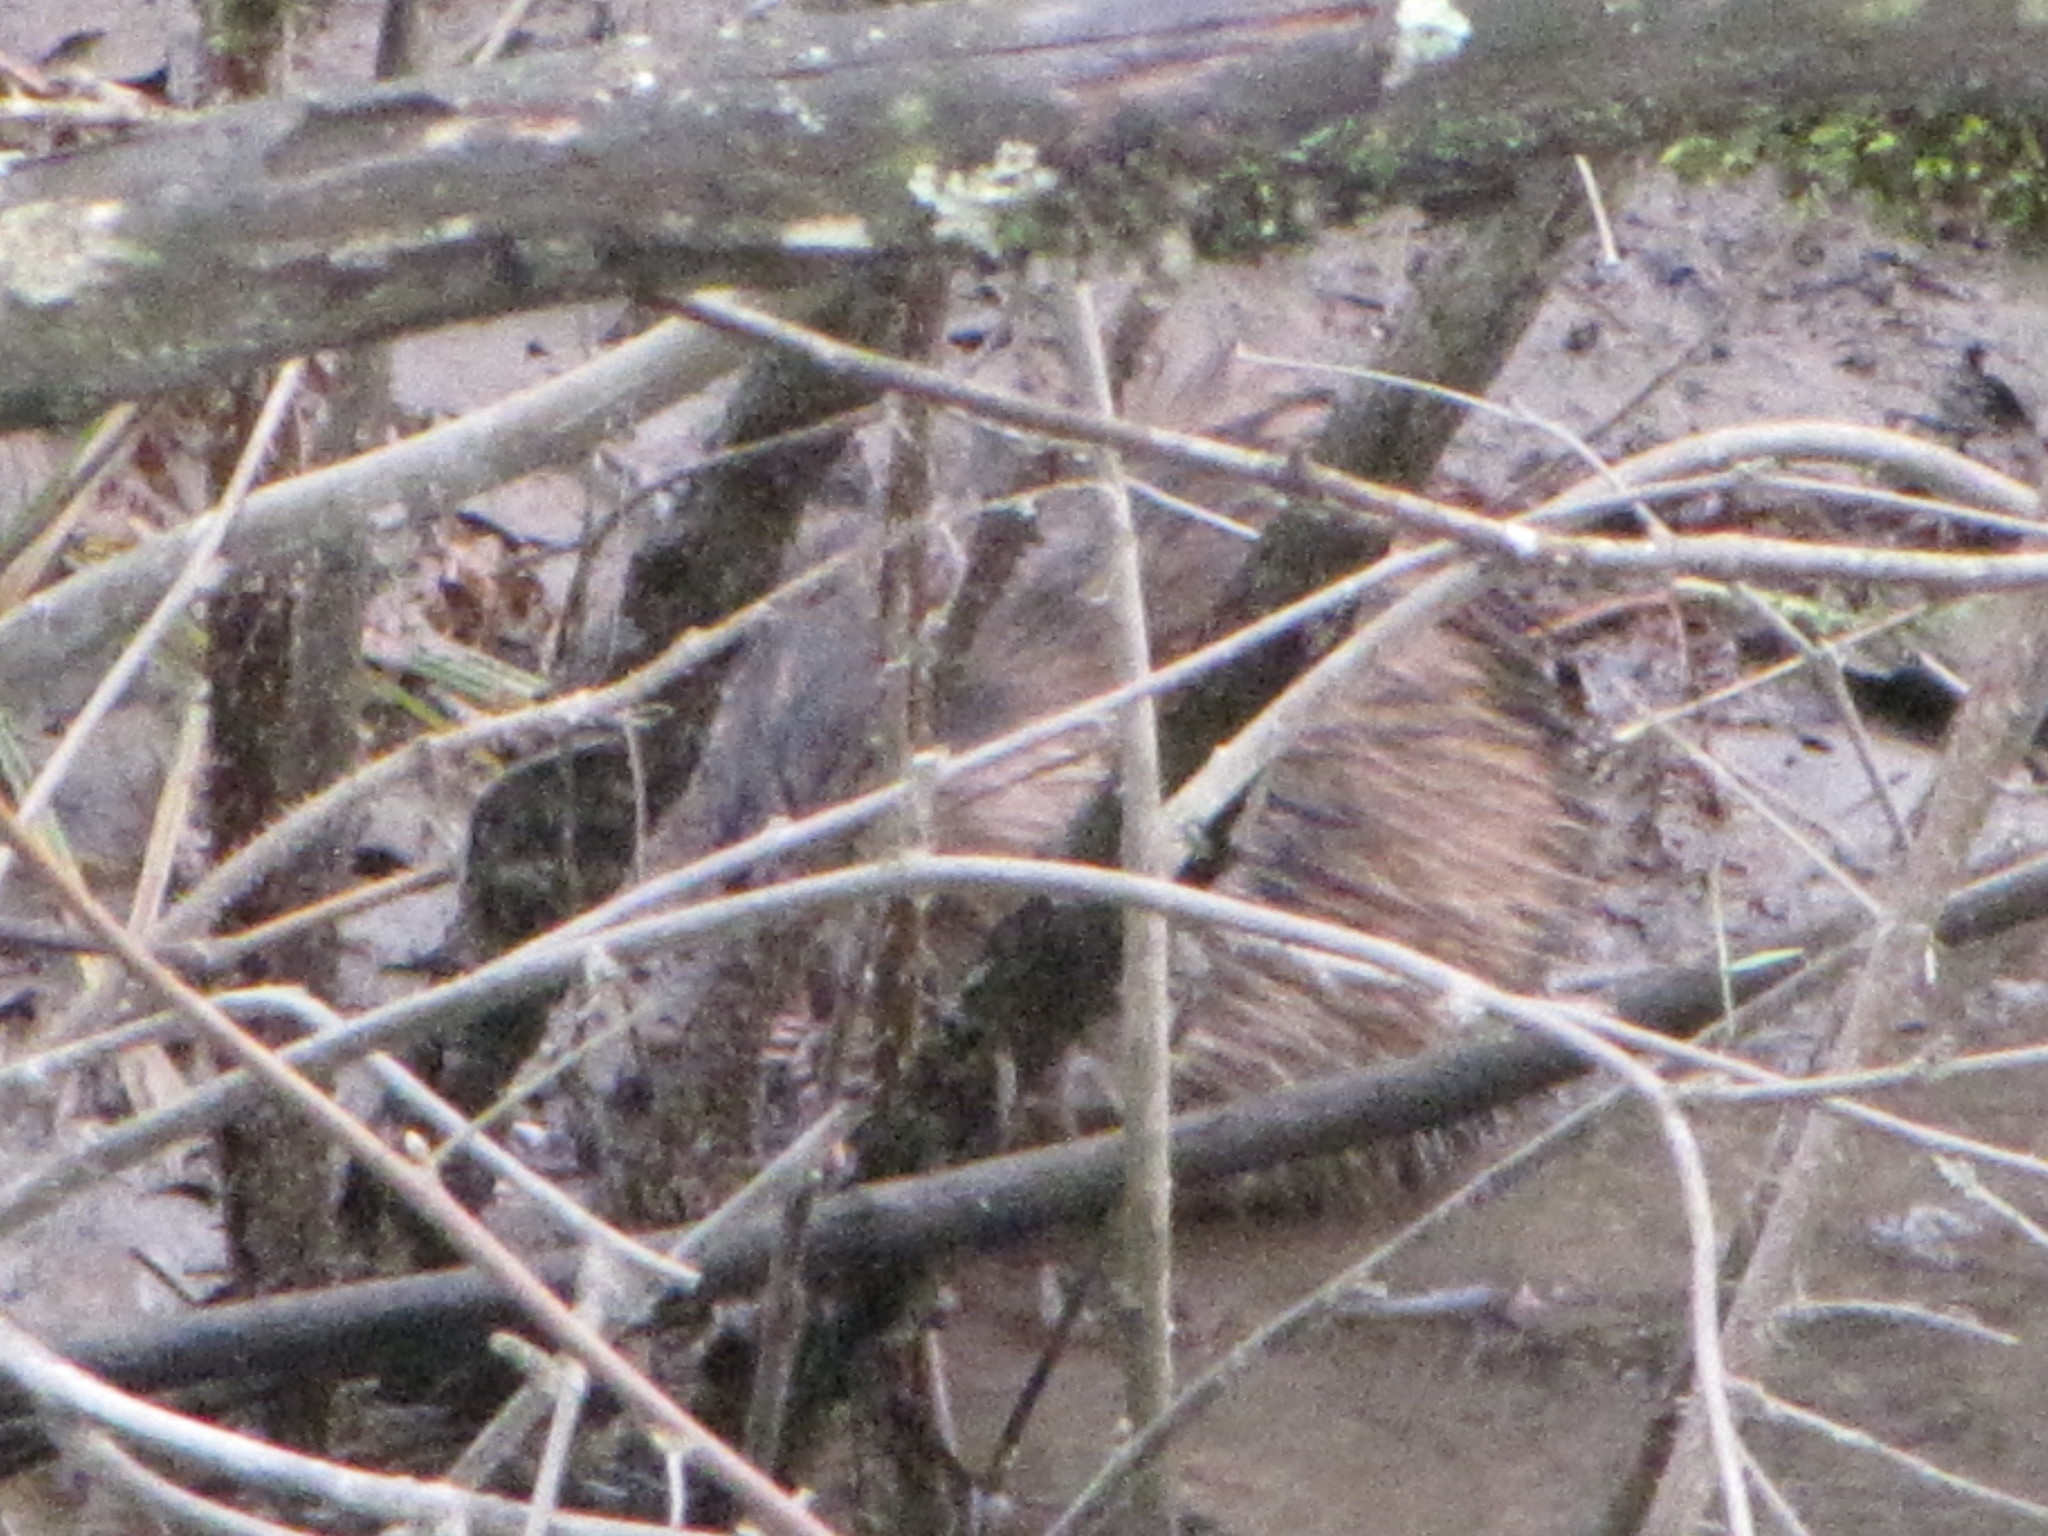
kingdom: Animalia
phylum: Chordata
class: Mammalia
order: Rodentia
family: Cricetidae
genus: Ondatra
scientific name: Ondatra zibethicus
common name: Muskrat
